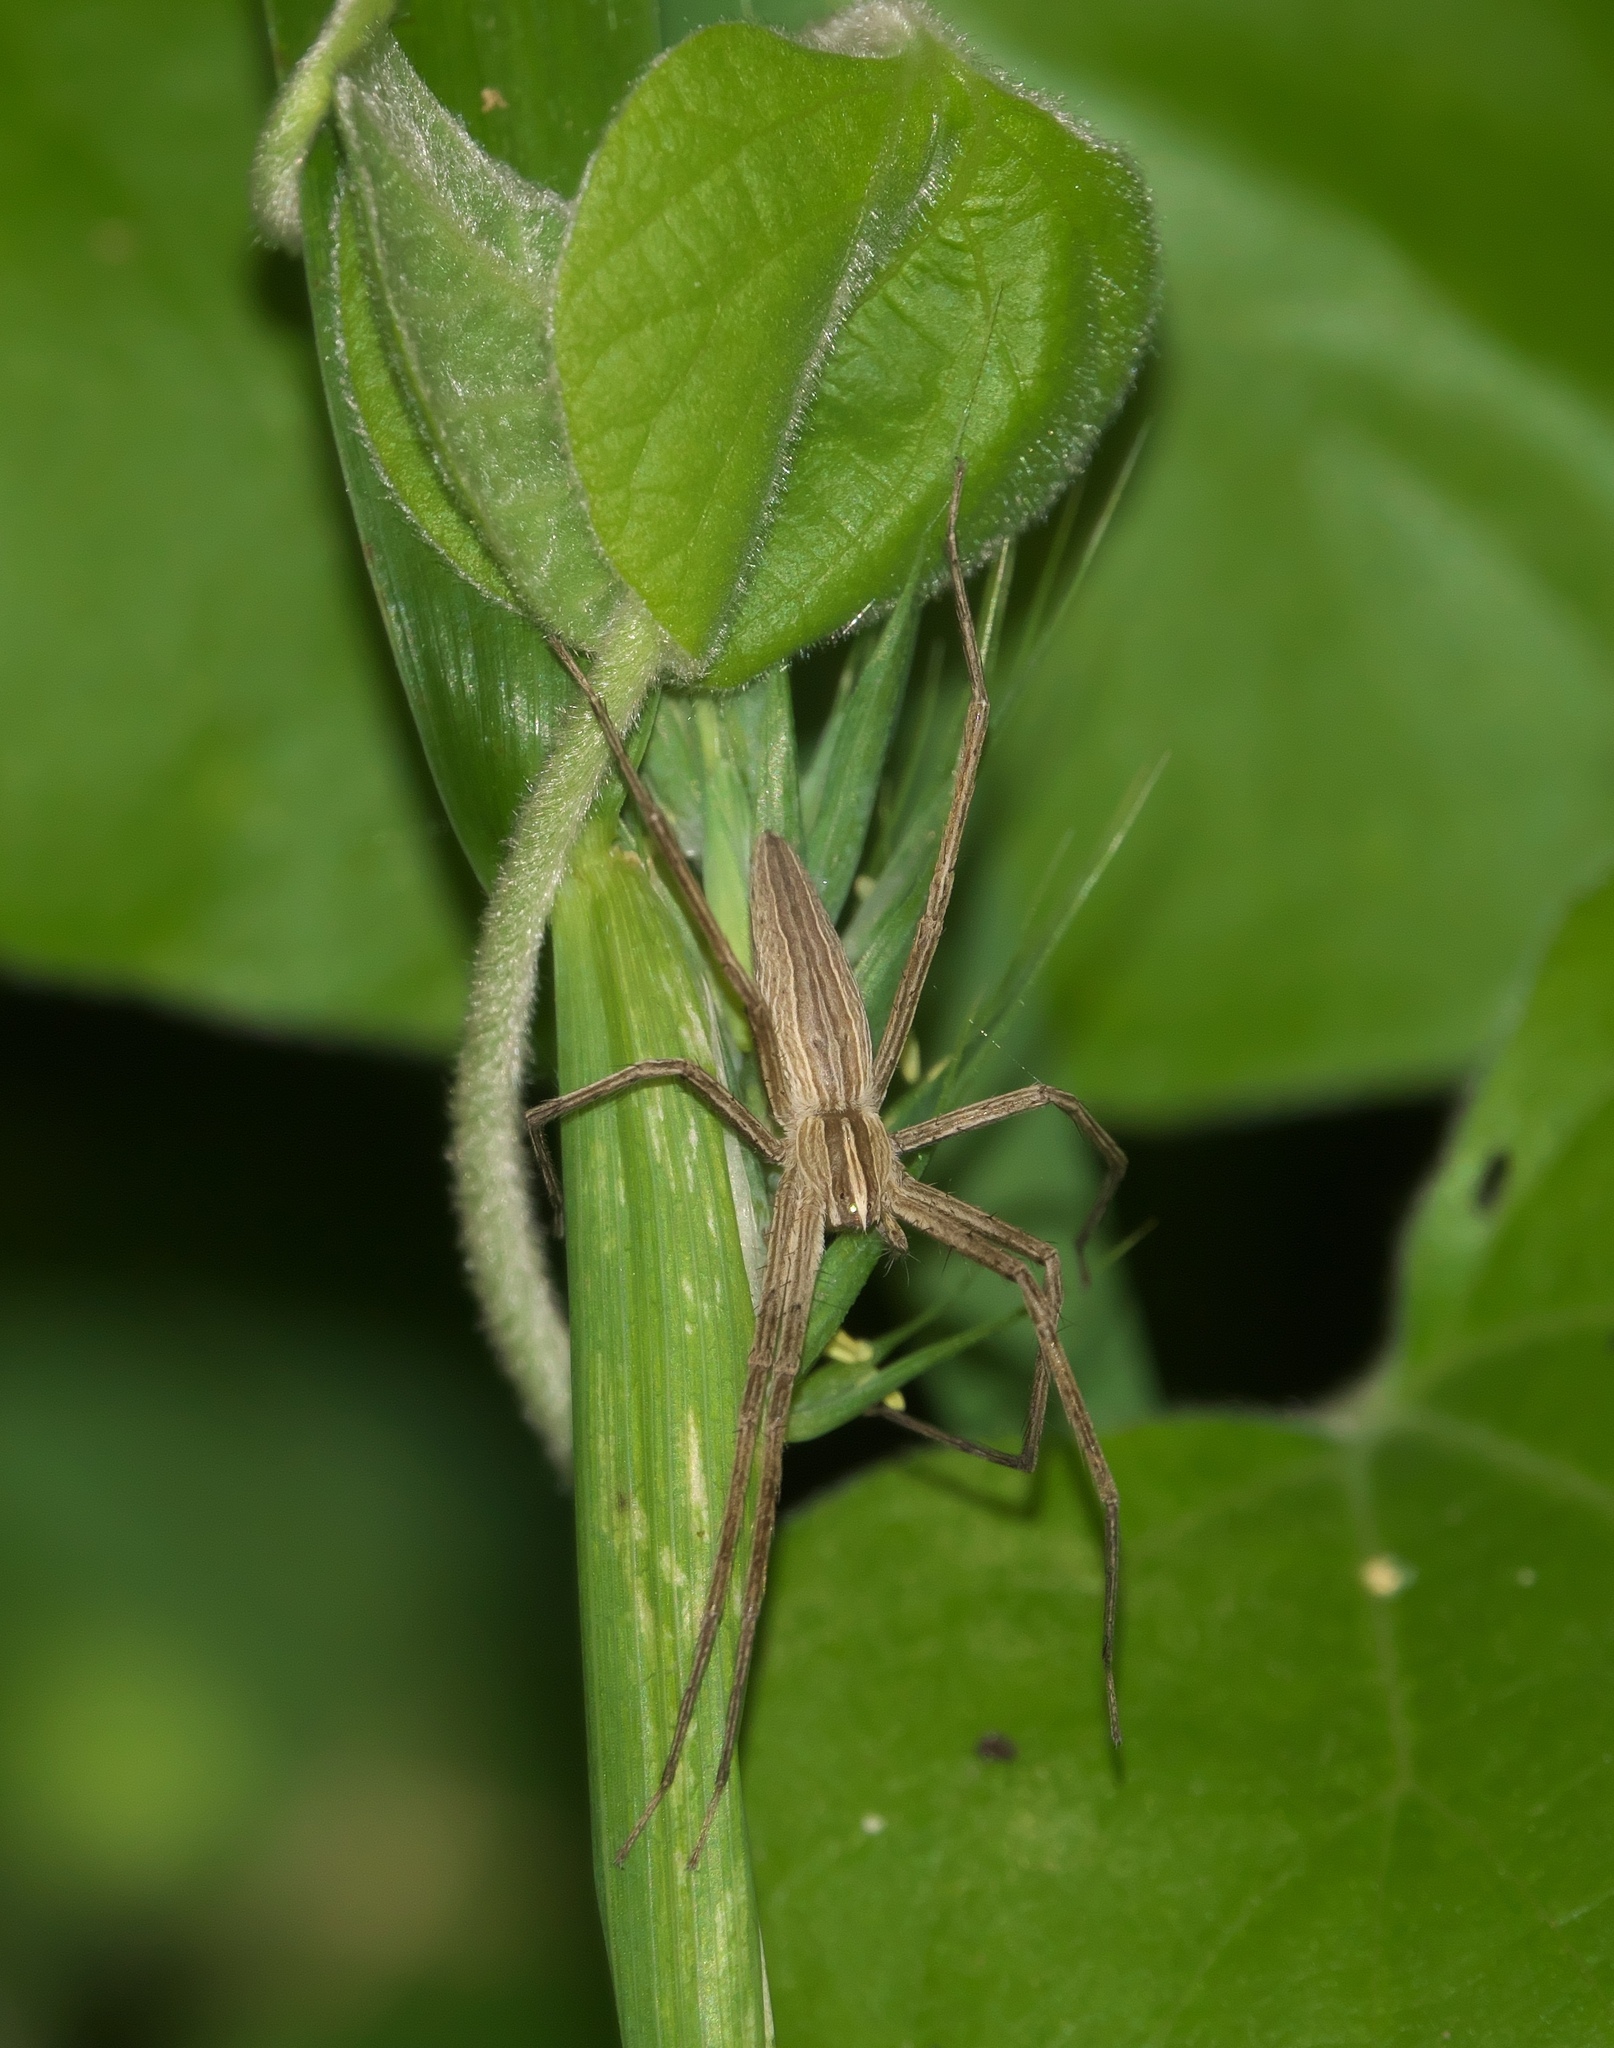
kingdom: Animalia
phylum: Arthropoda
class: Arachnida
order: Araneae
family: Pisauridae
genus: Pisaurina
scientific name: Pisaurina dubia
